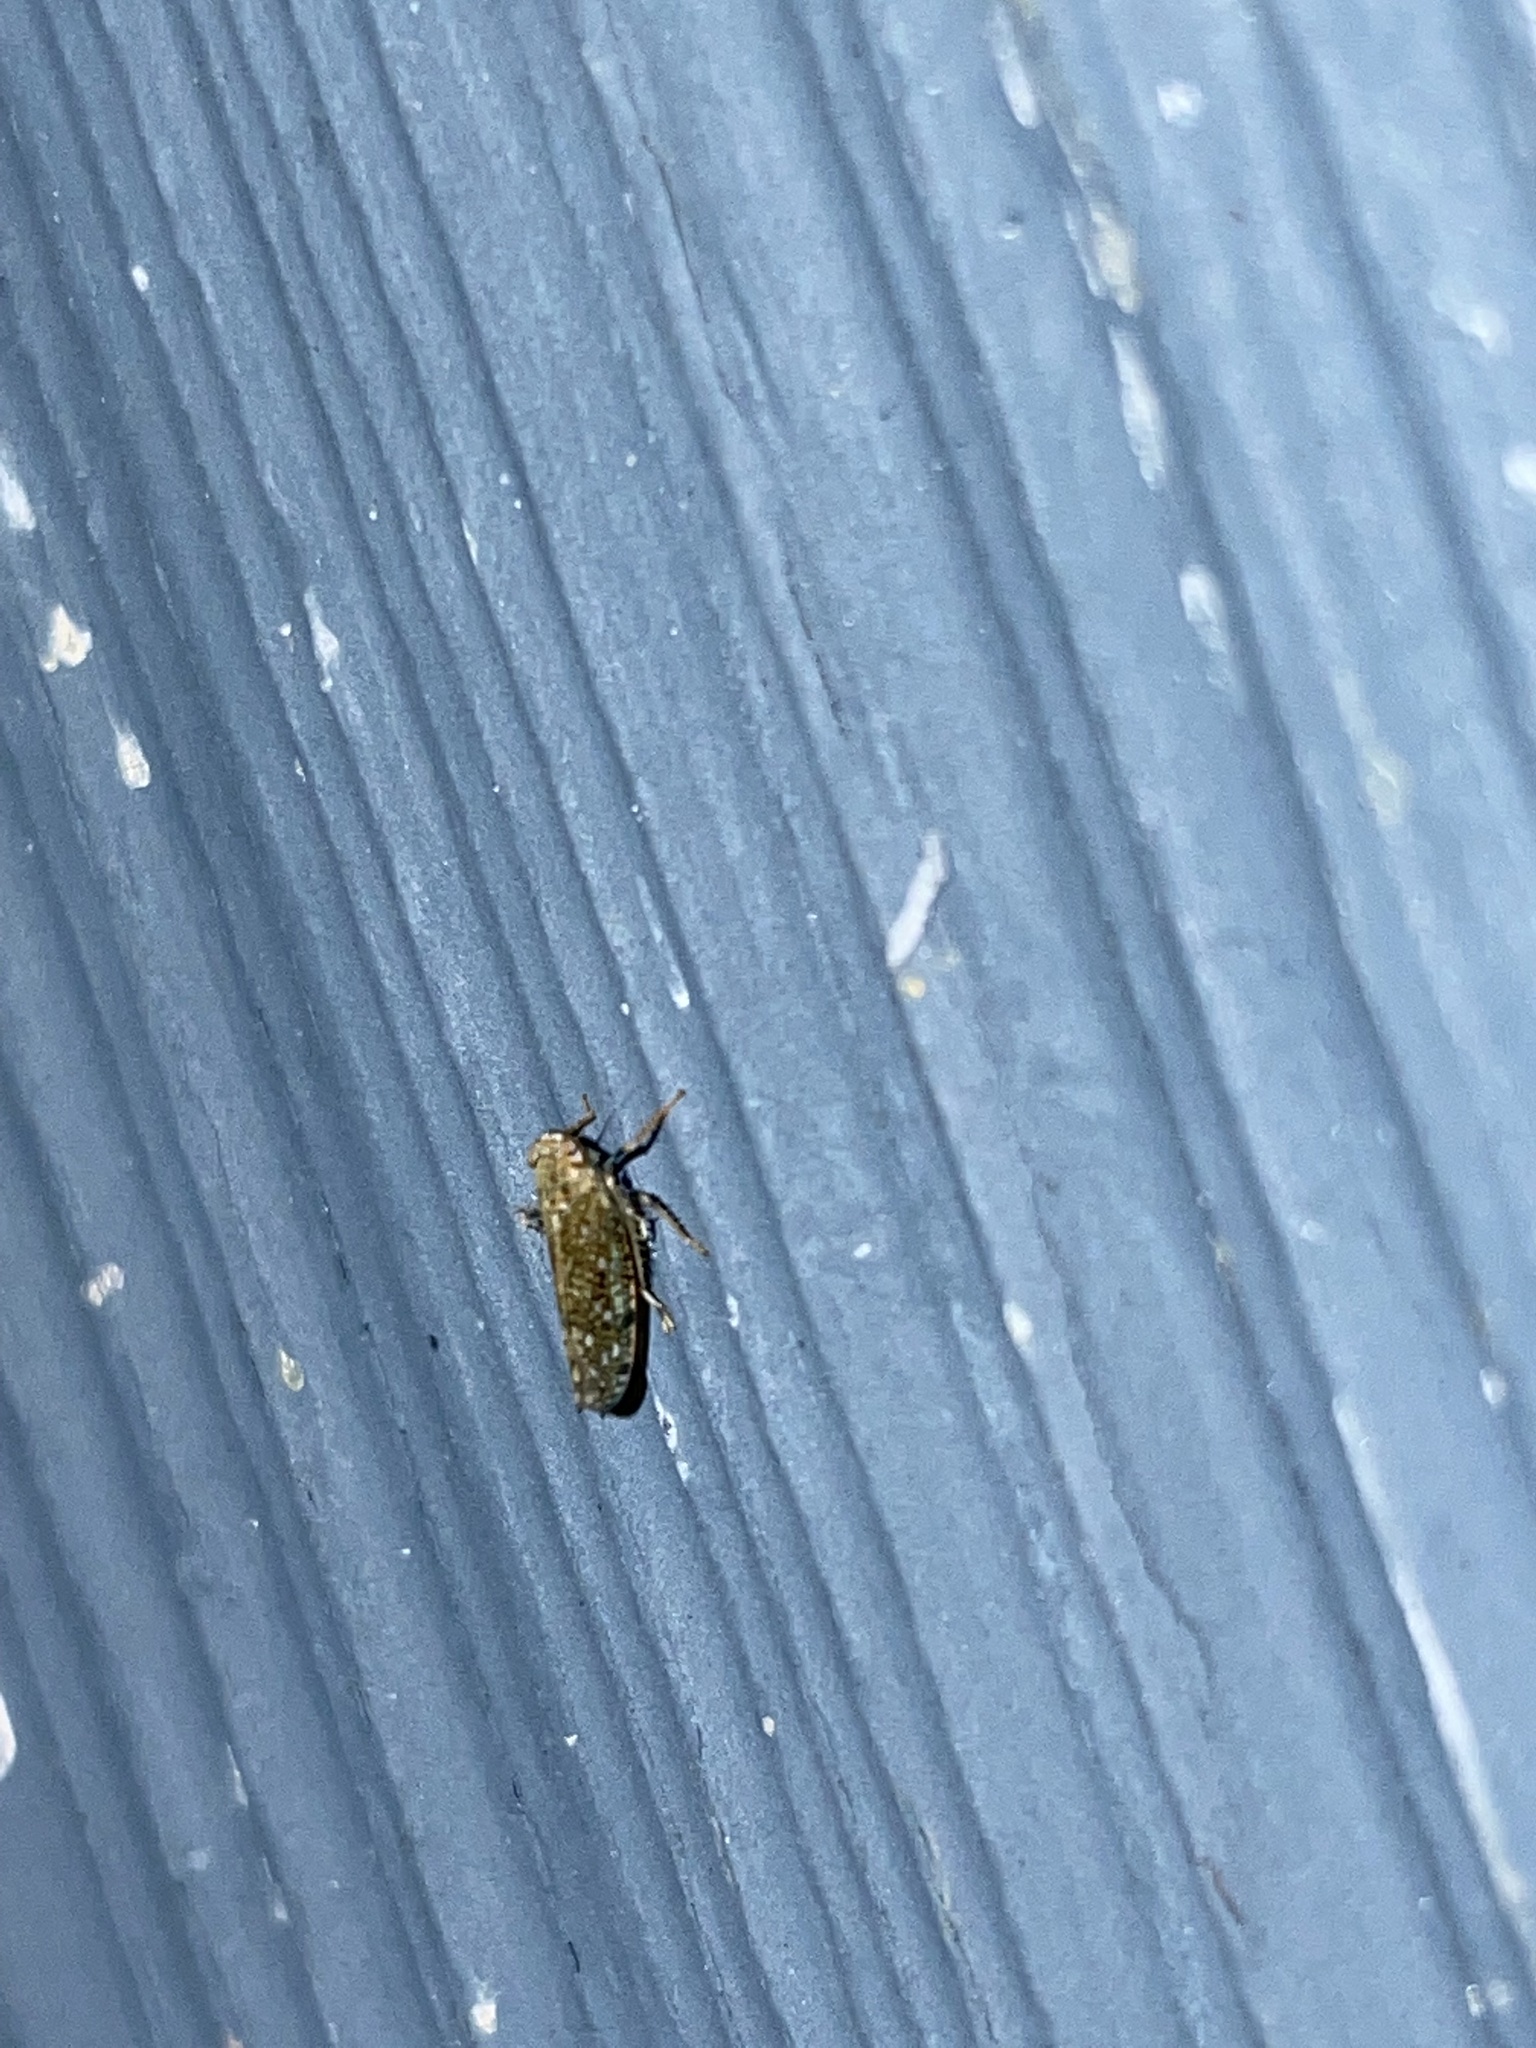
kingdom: Animalia
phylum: Arthropoda
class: Insecta
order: Hemiptera
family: Cicadellidae
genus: Orientus
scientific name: Orientus ishidae
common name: Japanese leafhopper
